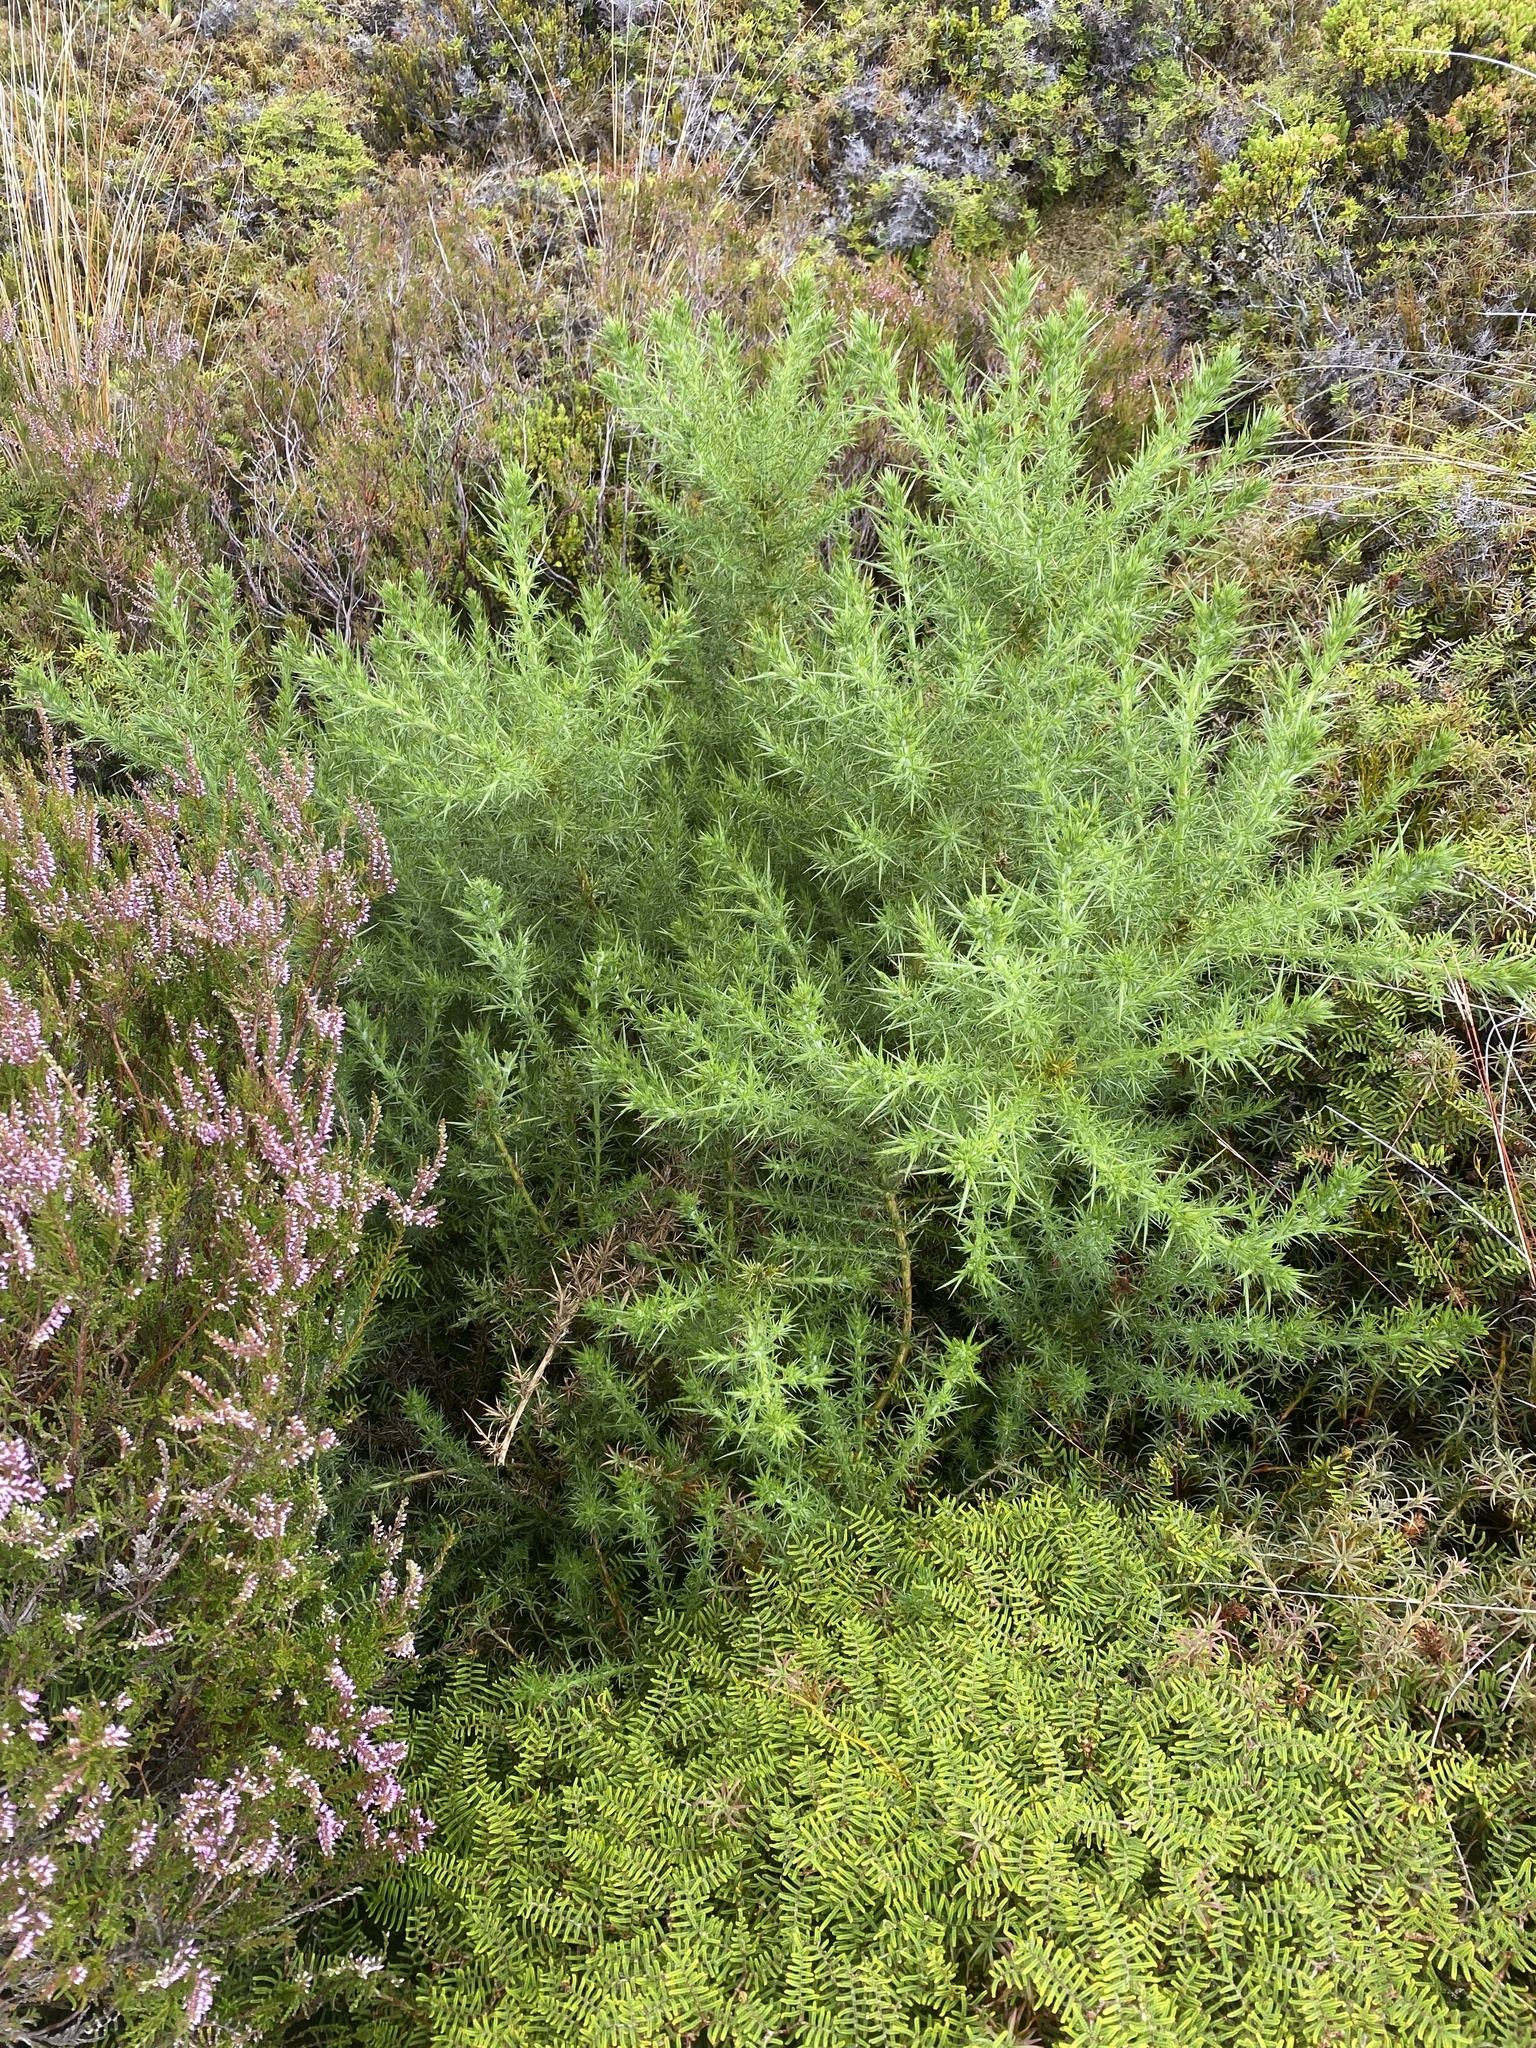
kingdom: Plantae
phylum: Tracheophyta
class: Magnoliopsida
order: Fabales
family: Fabaceae
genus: Ulex
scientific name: Ulex europaeus
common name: Common gorse
